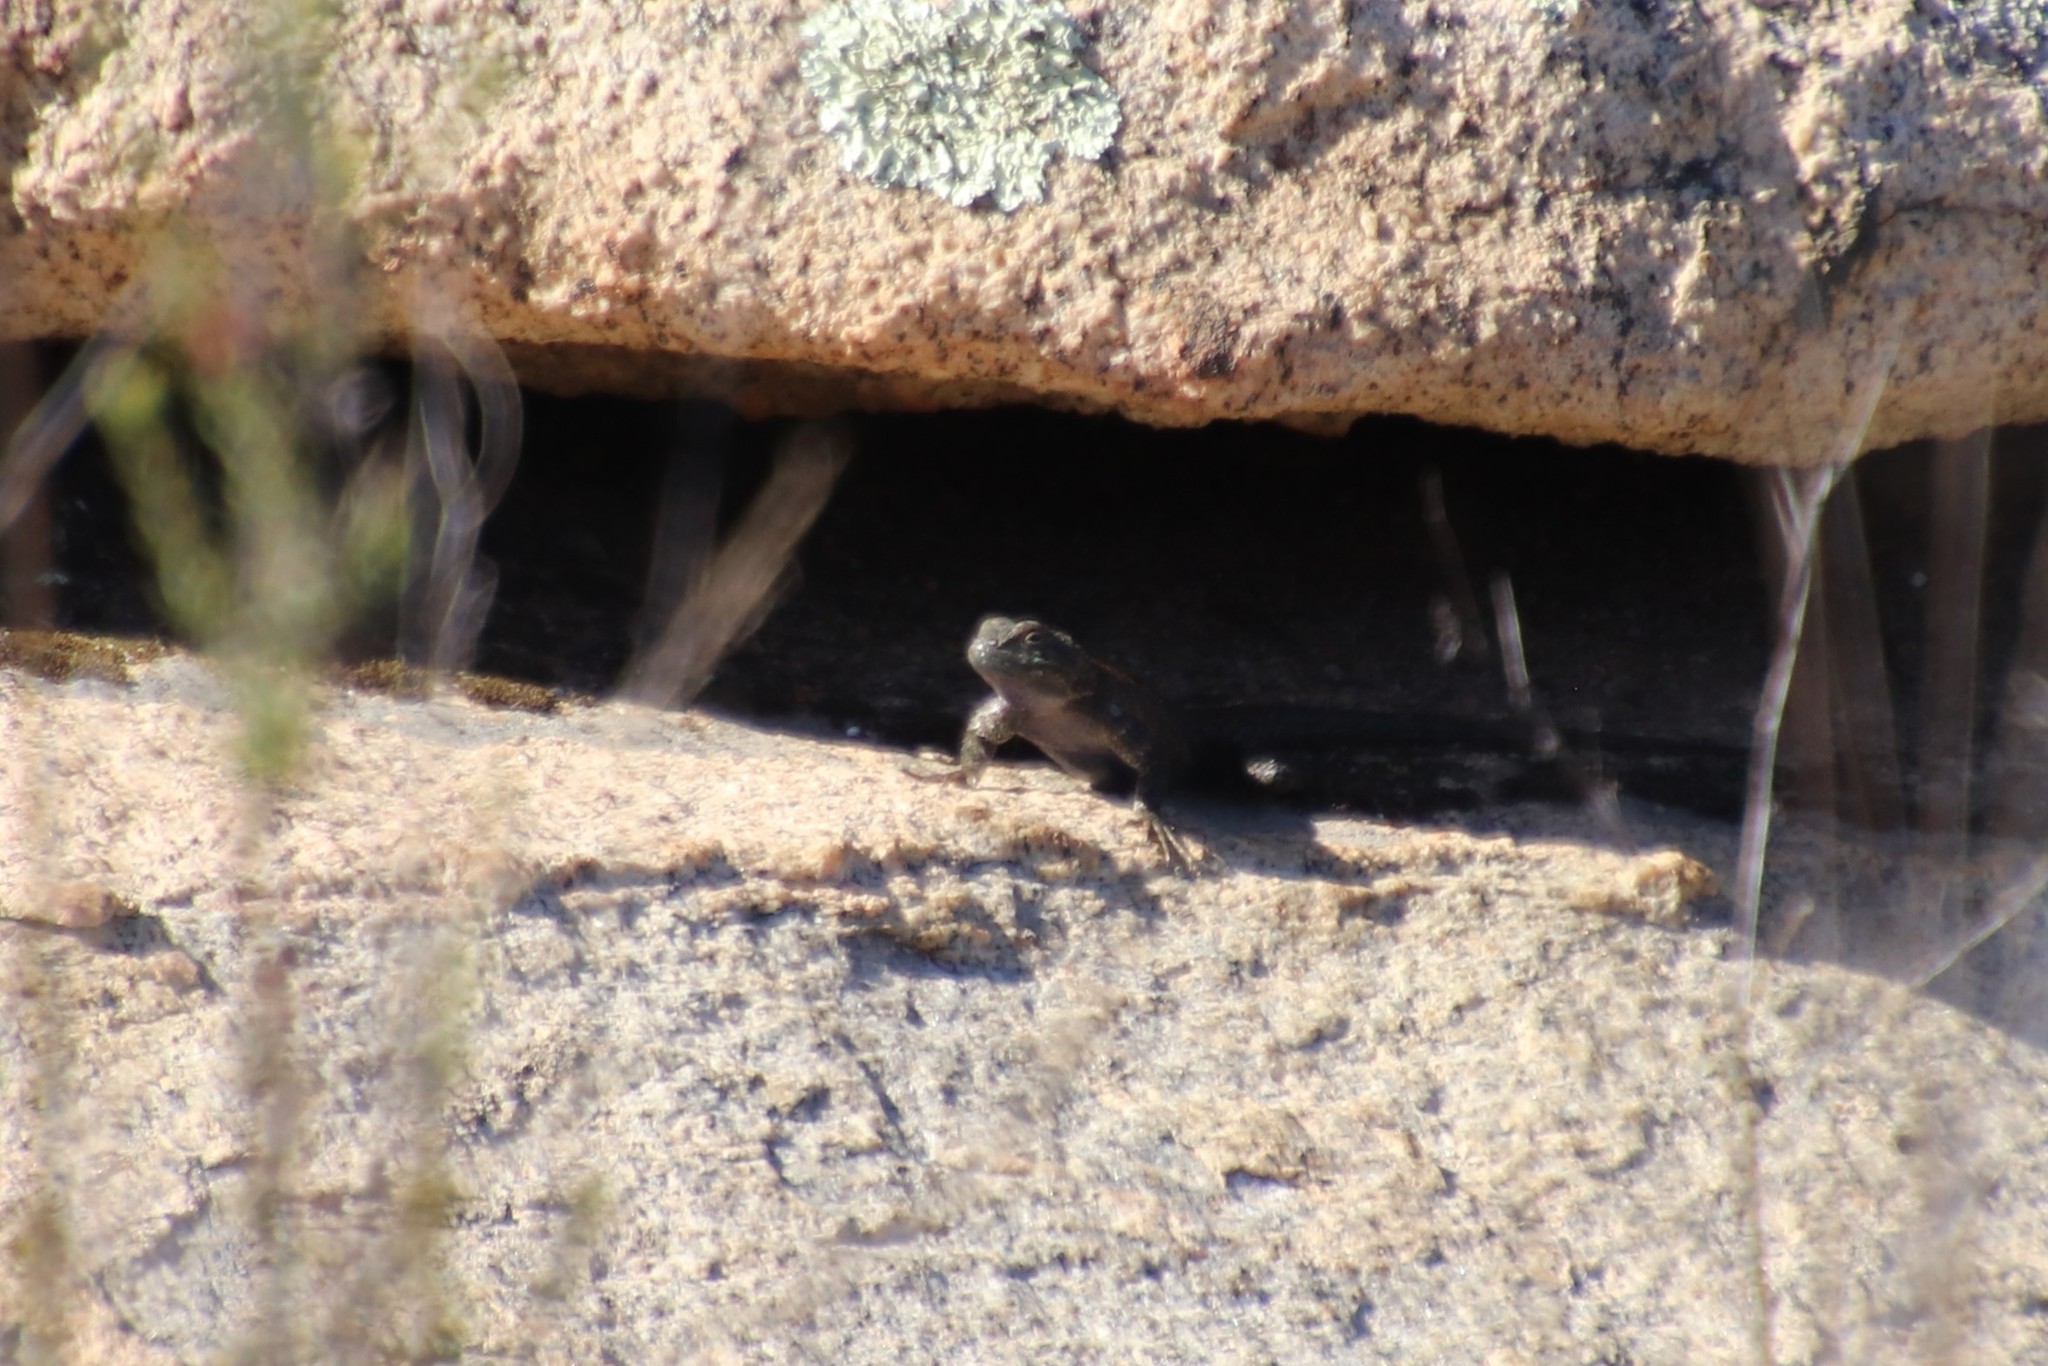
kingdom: Animalia
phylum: Chordata
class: Squamata
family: Phrynosomatidae
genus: Sceloporus
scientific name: Sceloporus orcutti
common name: Granite spiny lizard
